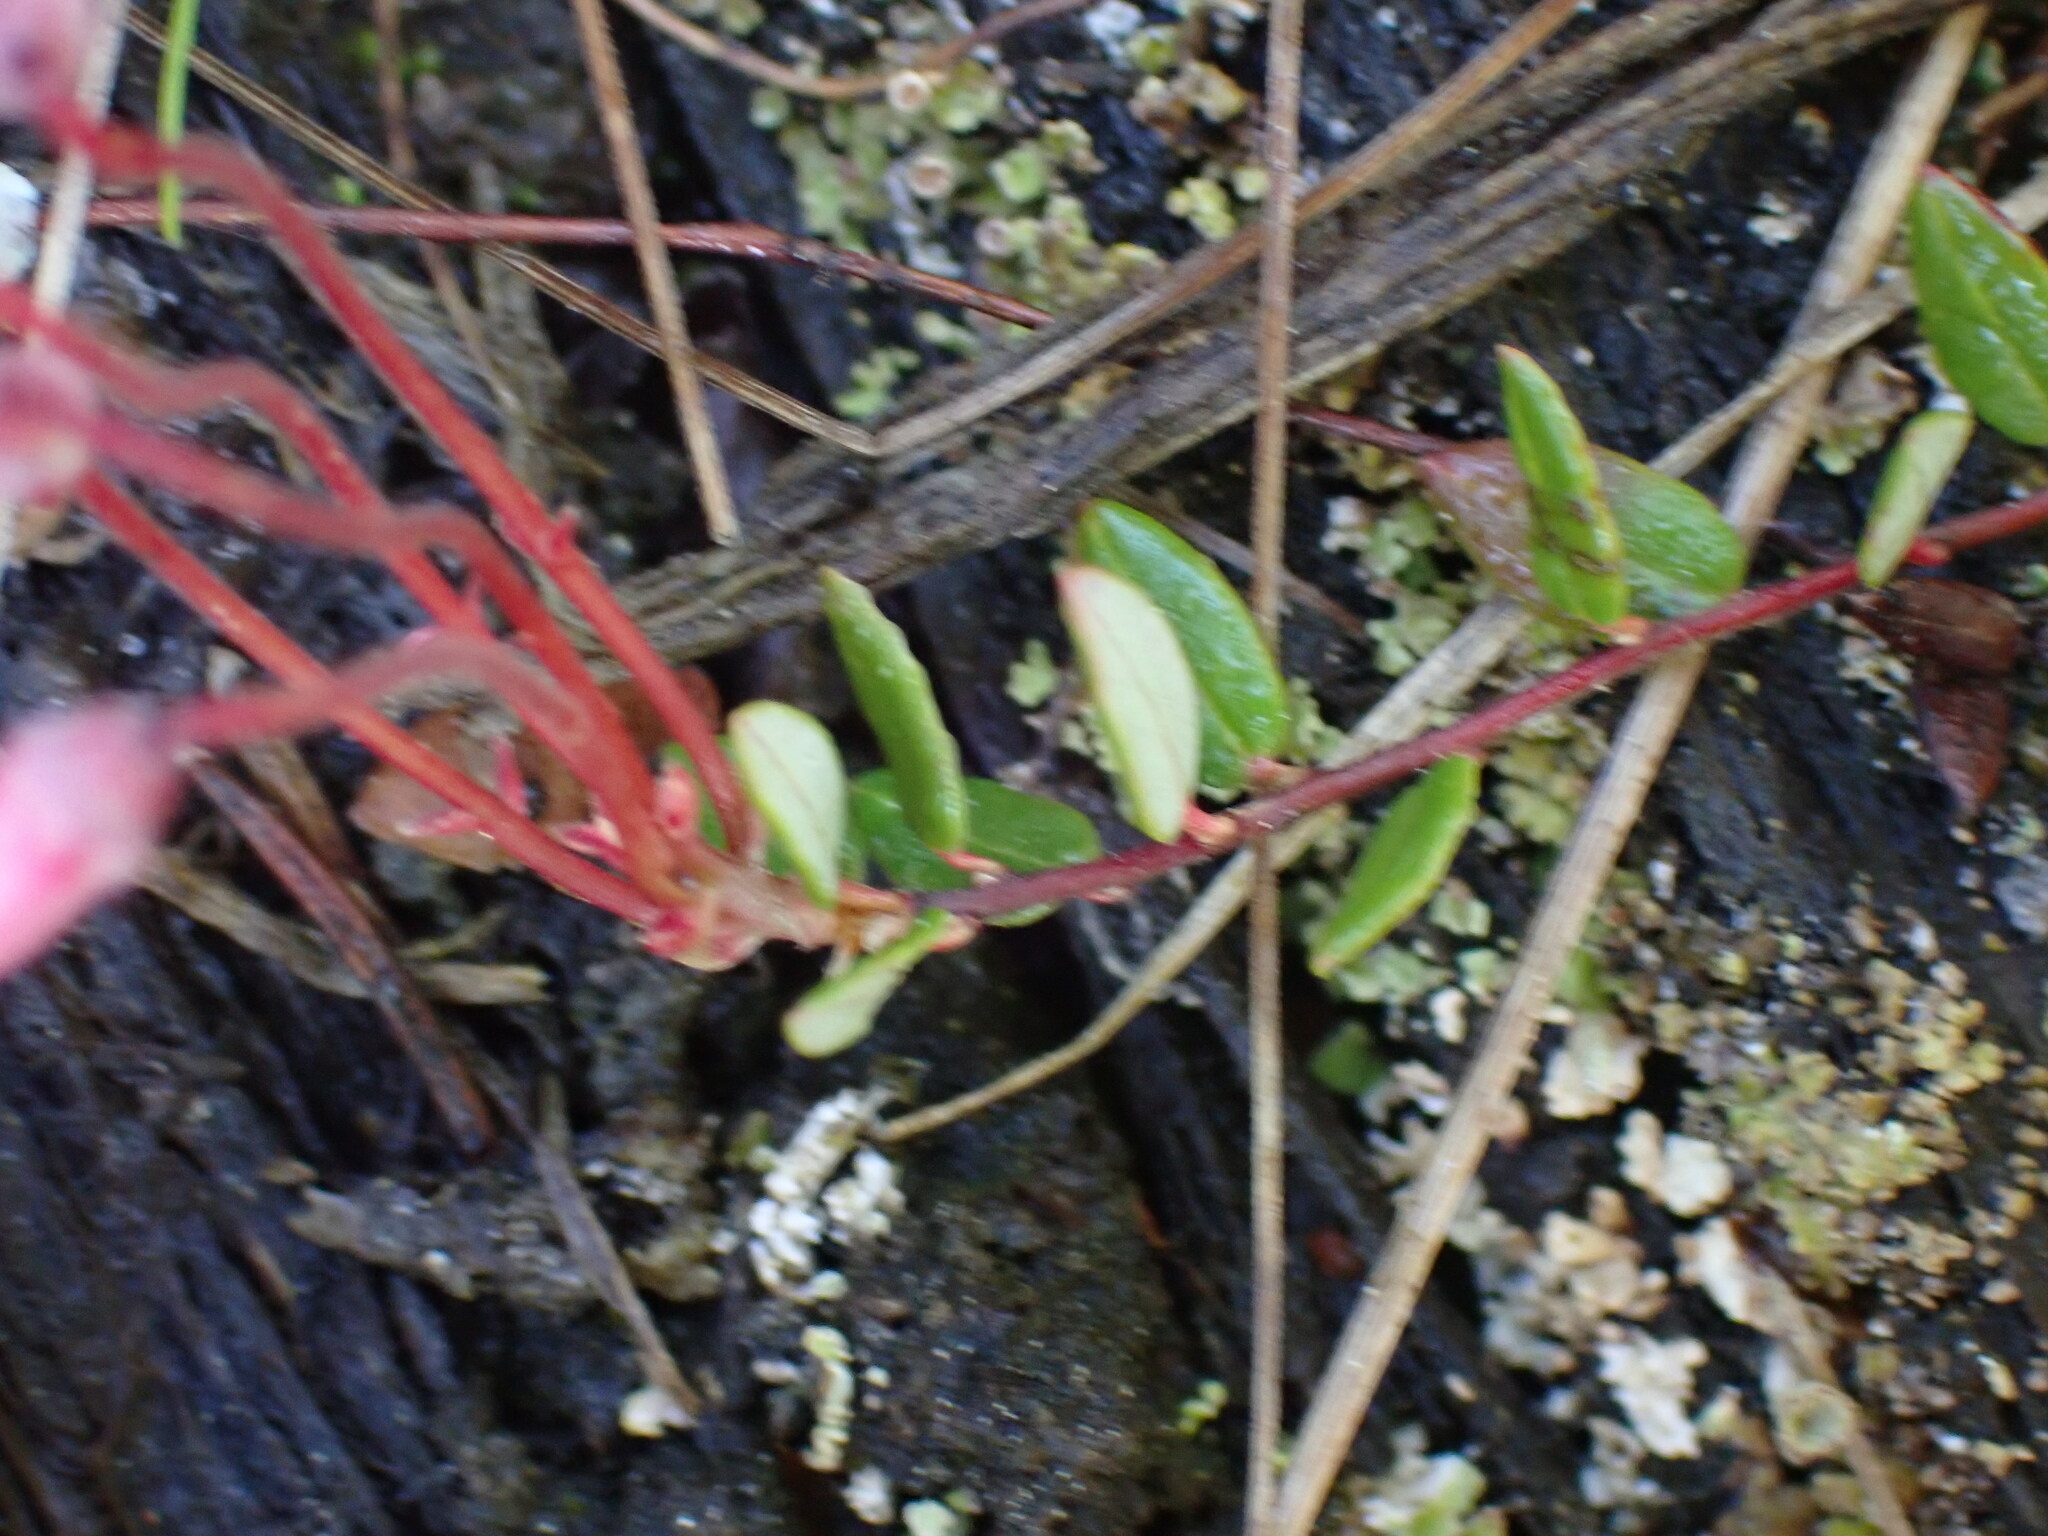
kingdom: Plantae
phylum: Tracheophyta
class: Magnoliopsida
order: Ericales
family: Ericaceae
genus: Vaccinium
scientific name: Vaccinium oxycoccos
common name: Cranberry
